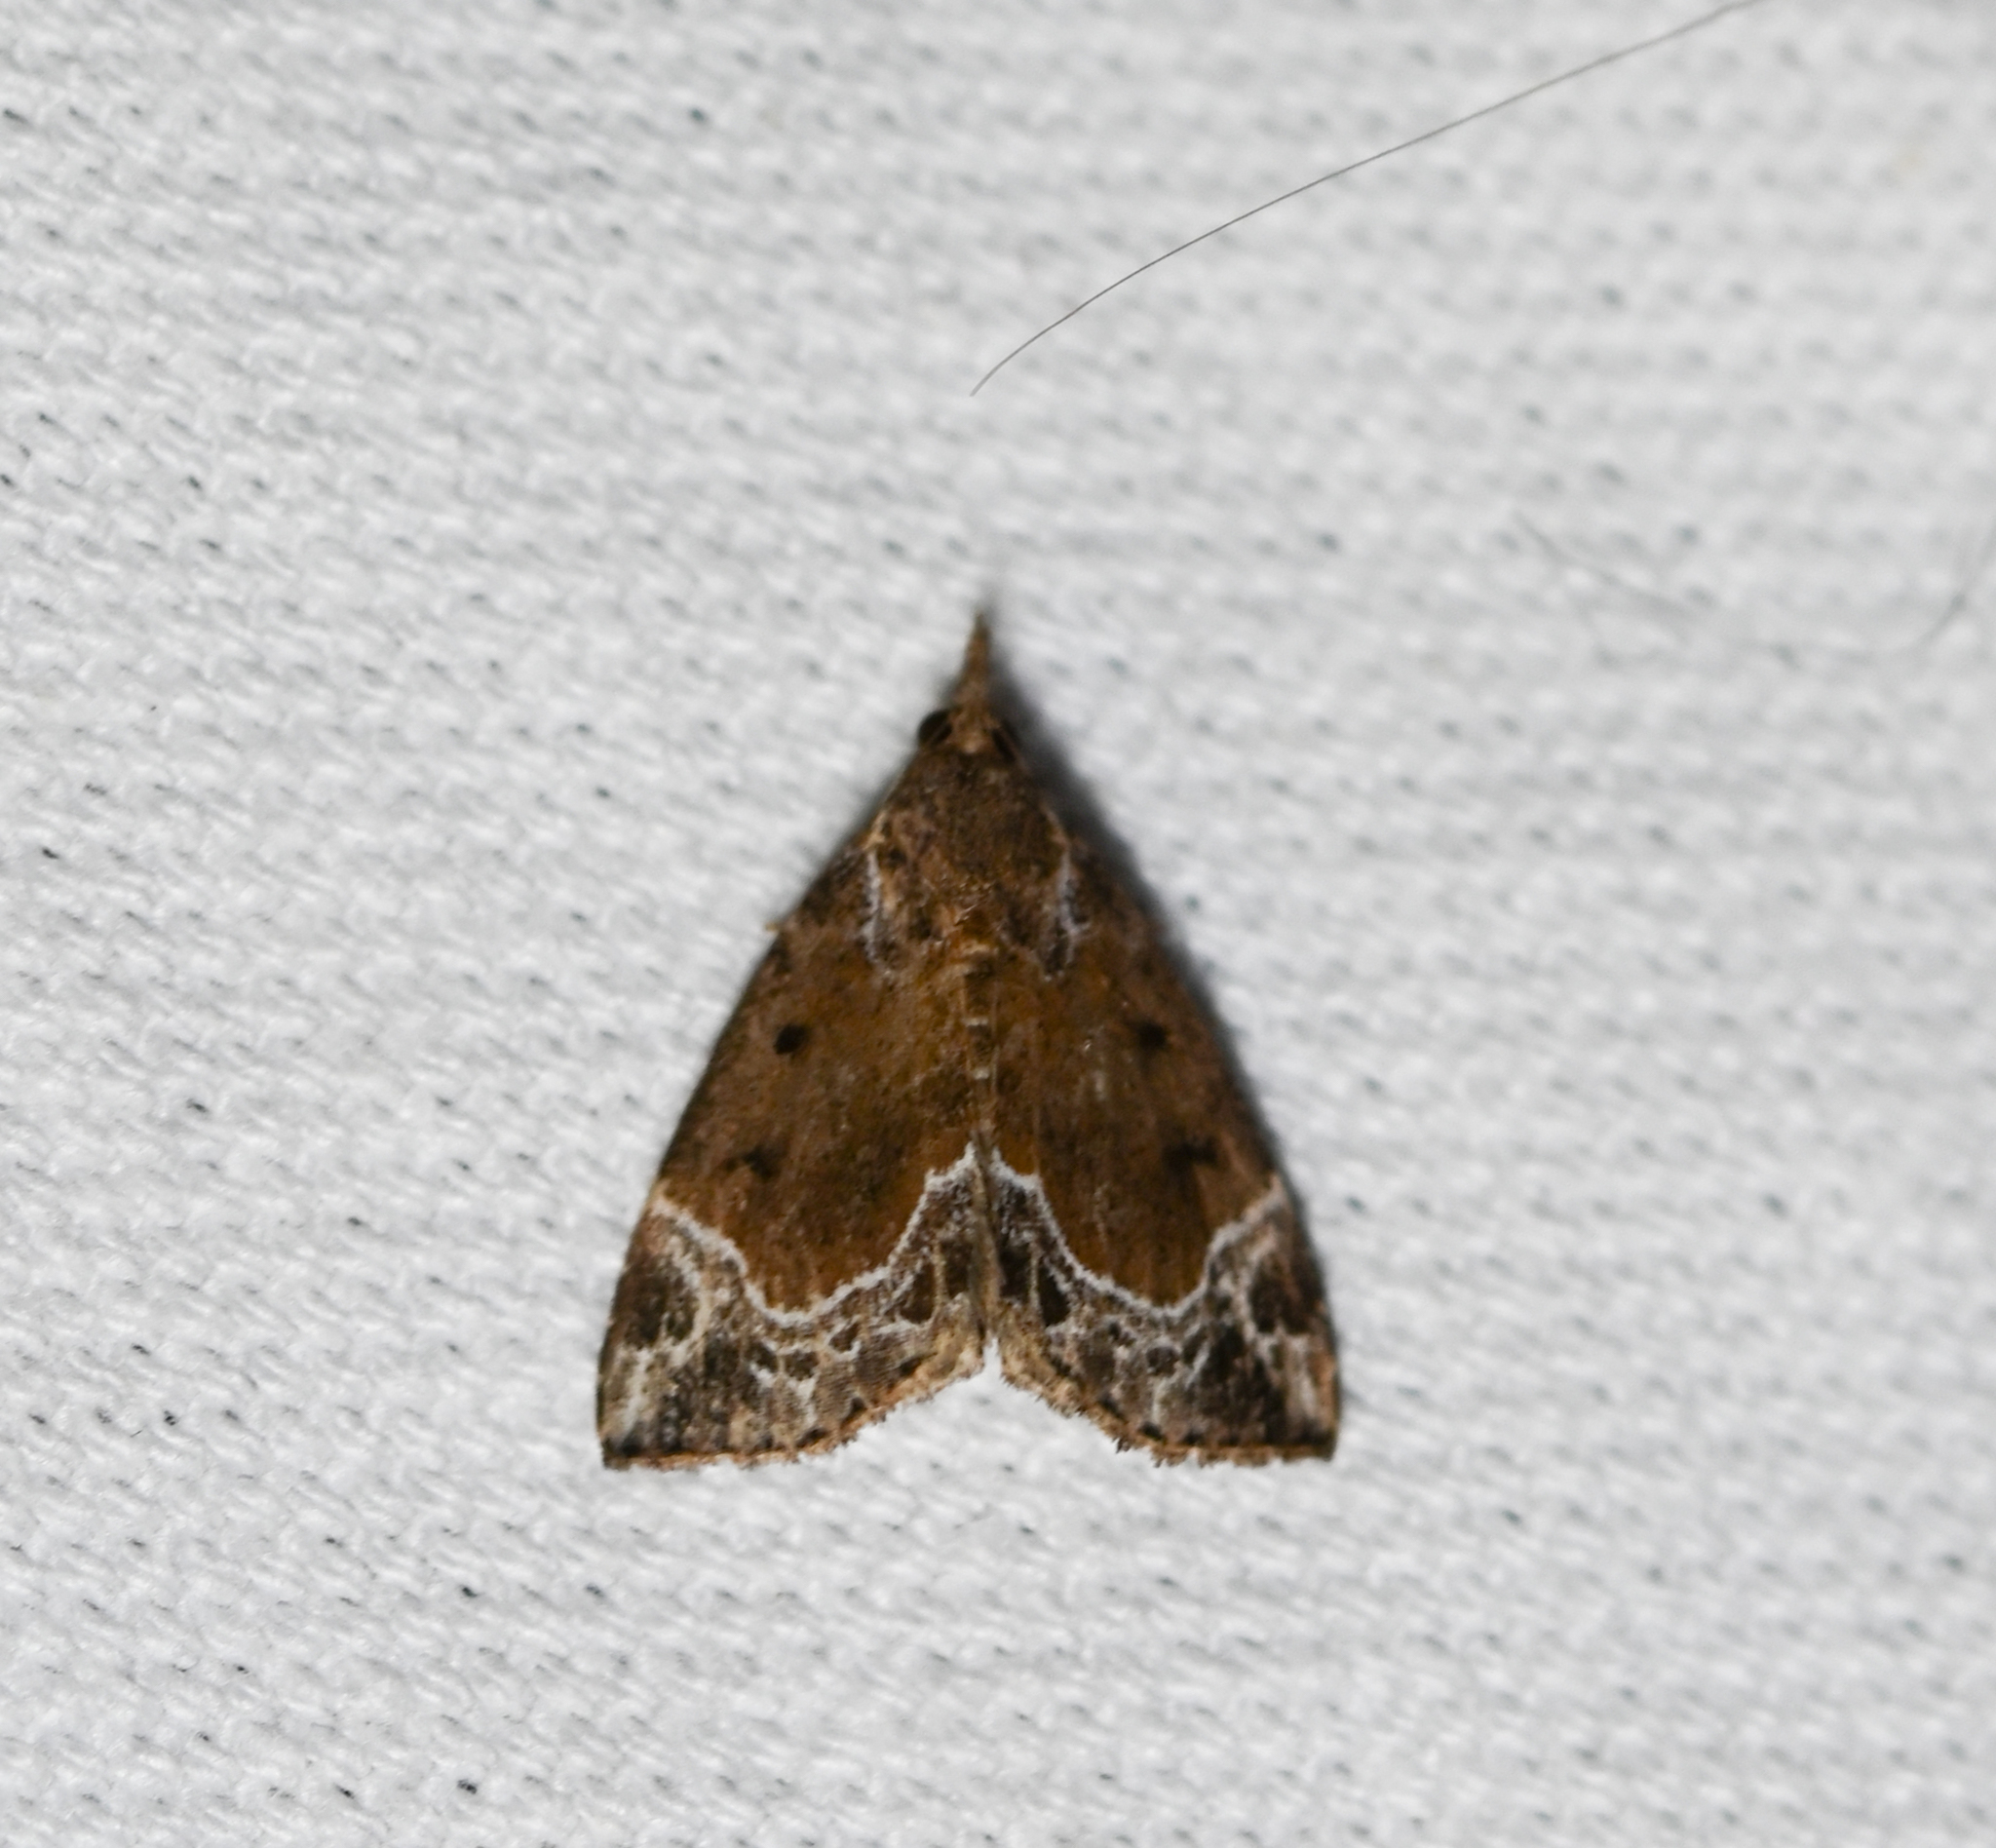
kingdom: Animalia
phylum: Arthropoda
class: Insecta
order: Lepidoptera
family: Erebidae
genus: Hypena
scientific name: Hypena abalienalis
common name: White-lined snout
